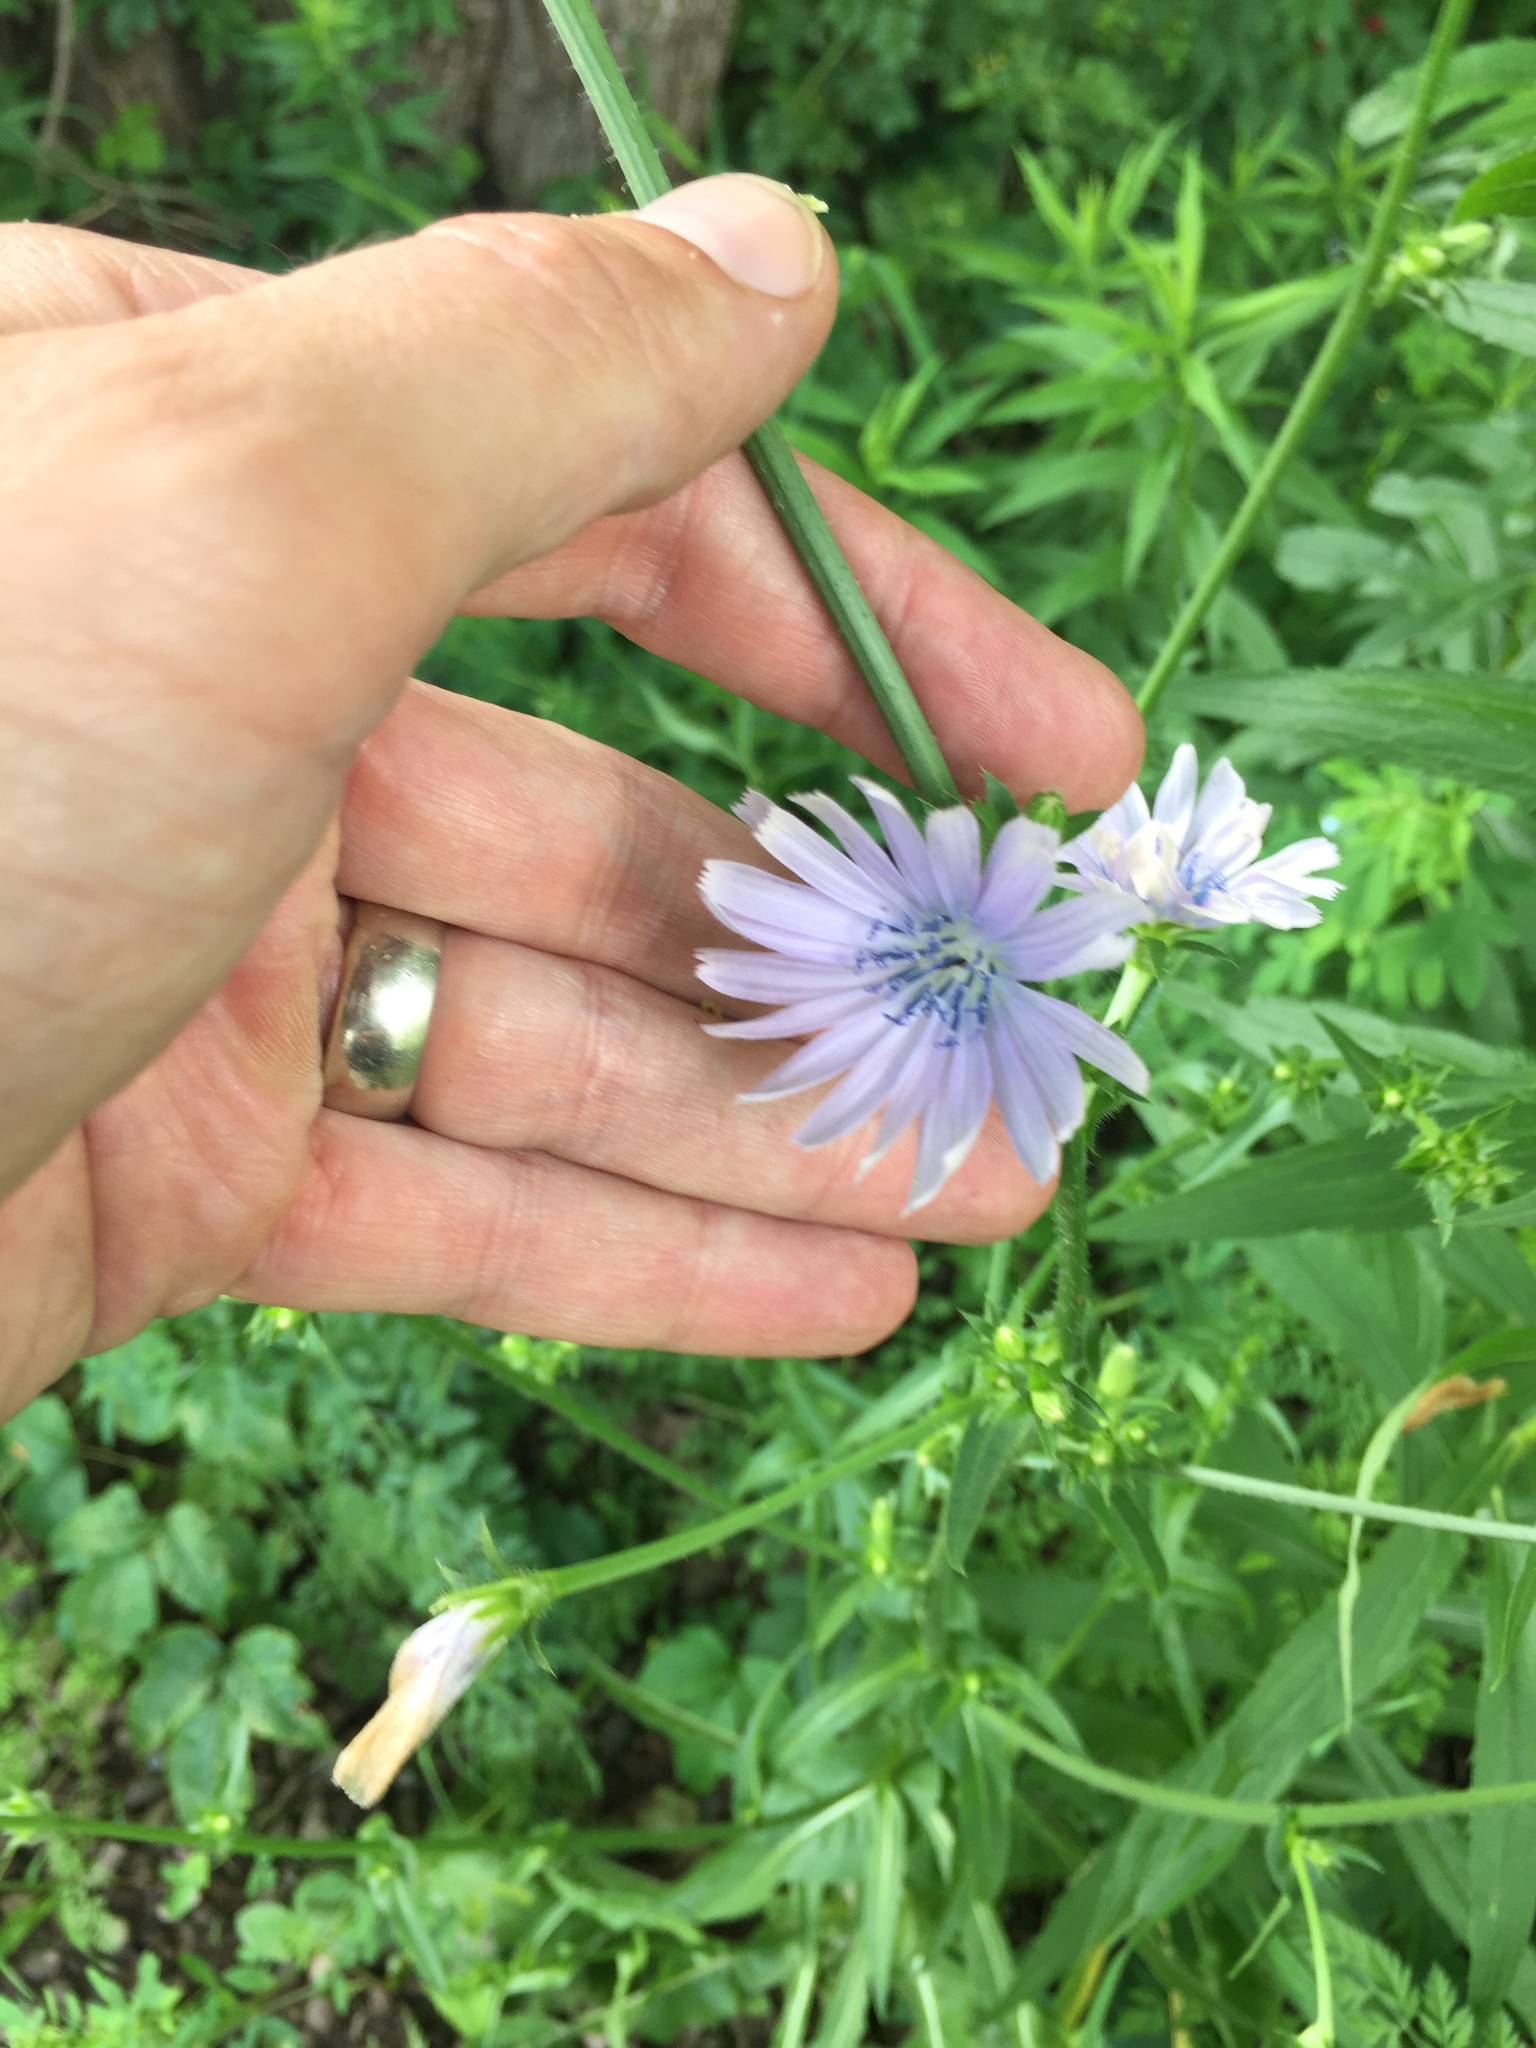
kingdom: Plantae
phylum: Tracheophyta
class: Magnoliopsida
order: Asterales
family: Asteraceae
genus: Cichorium
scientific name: Cichorium intybus
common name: Chicory
